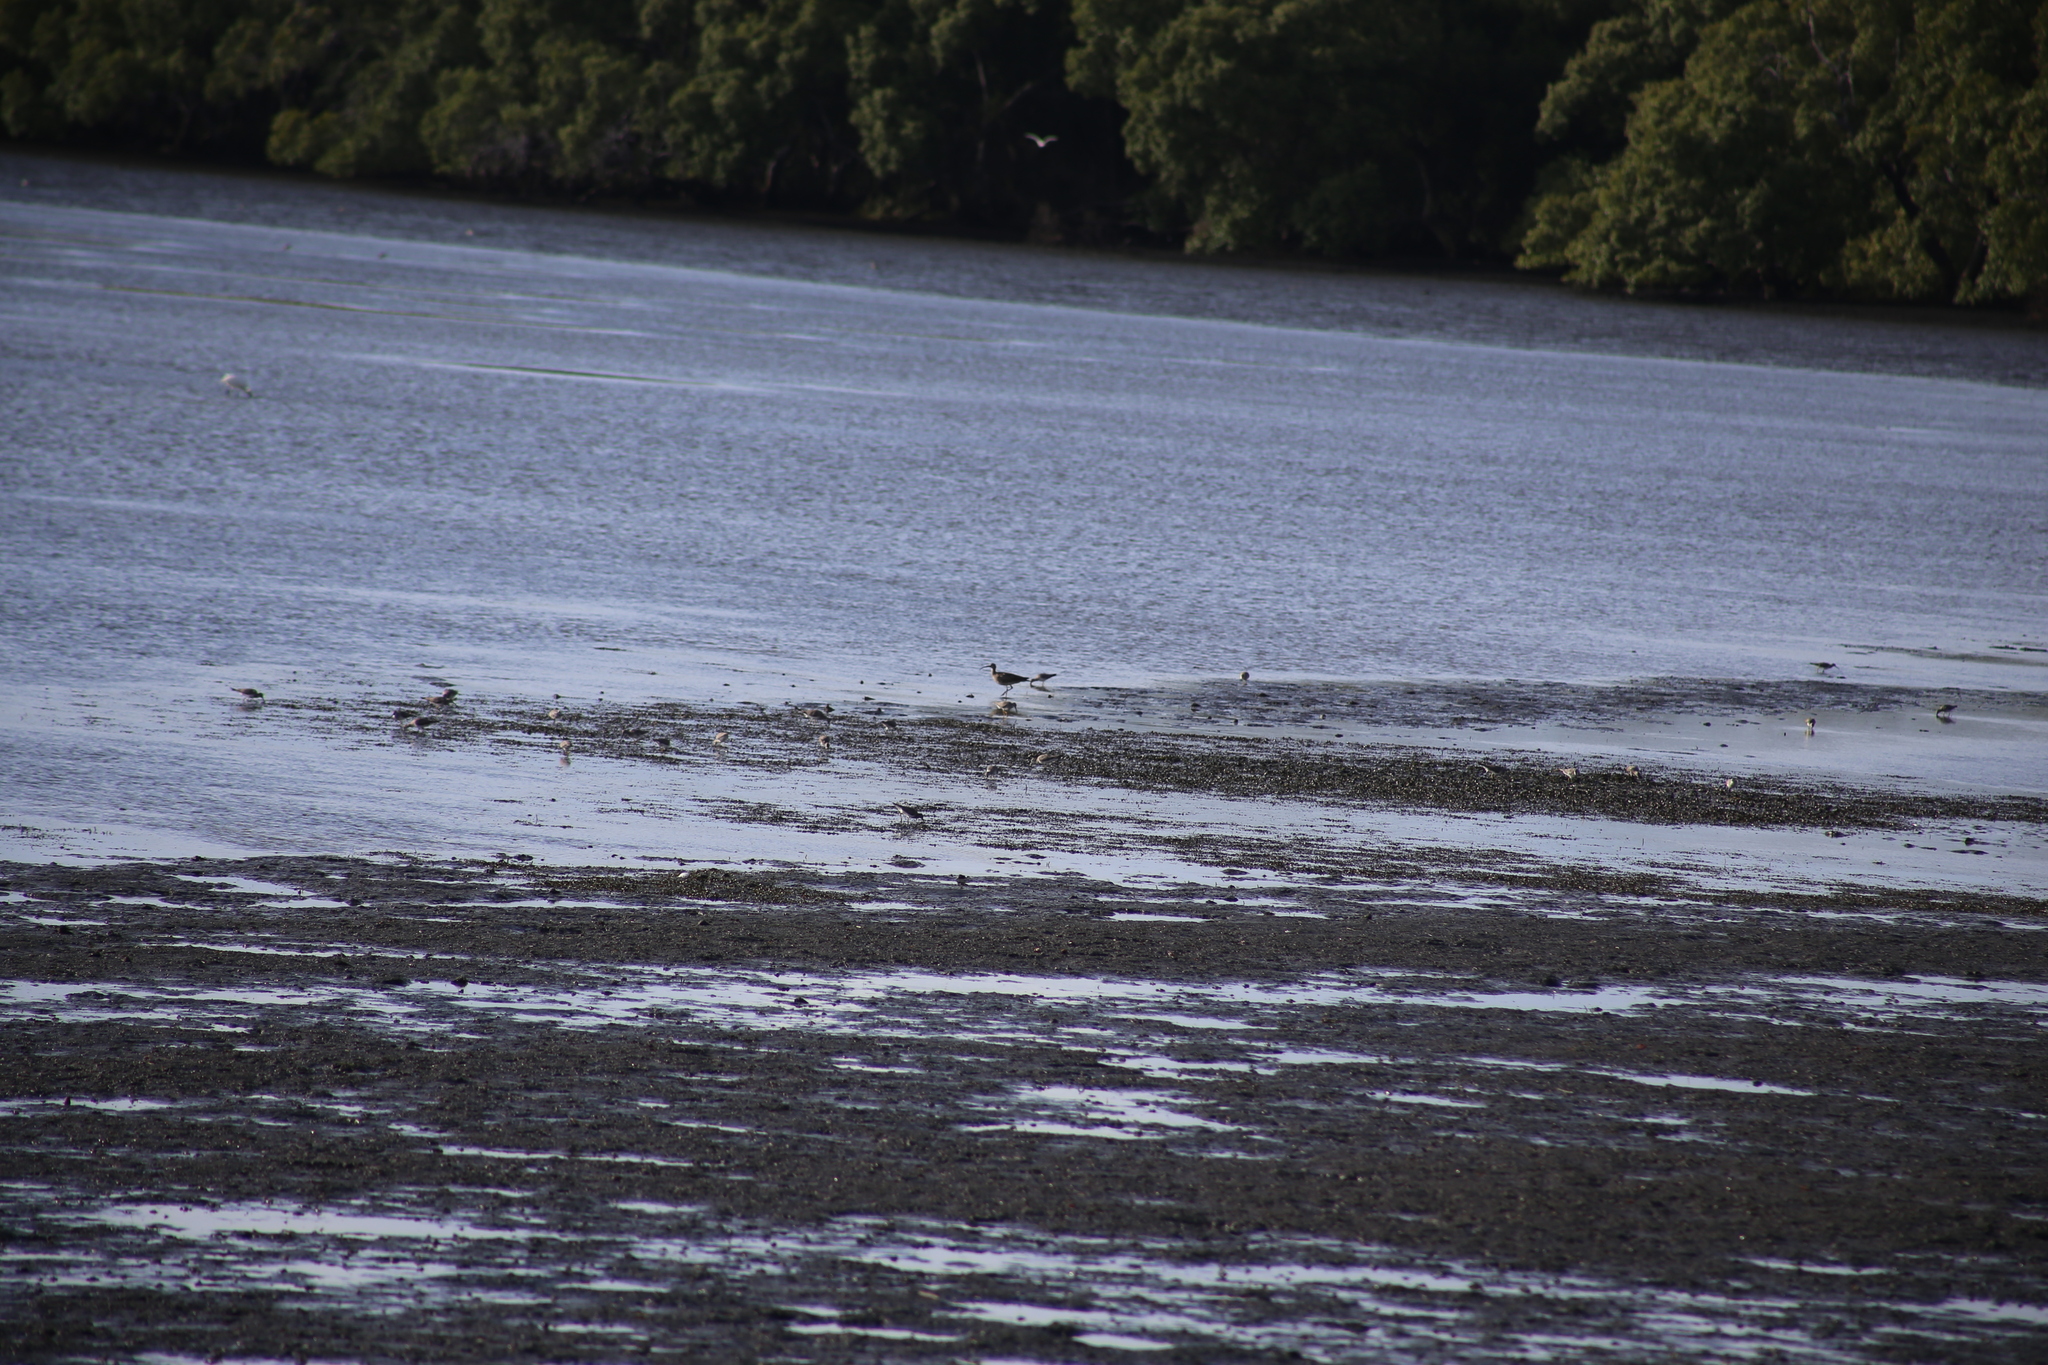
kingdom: Animalia
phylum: Chordata
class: Aves
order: Charadriiformes
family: Scolopacidae
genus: Numenius
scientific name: Numenius phaeopus
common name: Whimbrel
